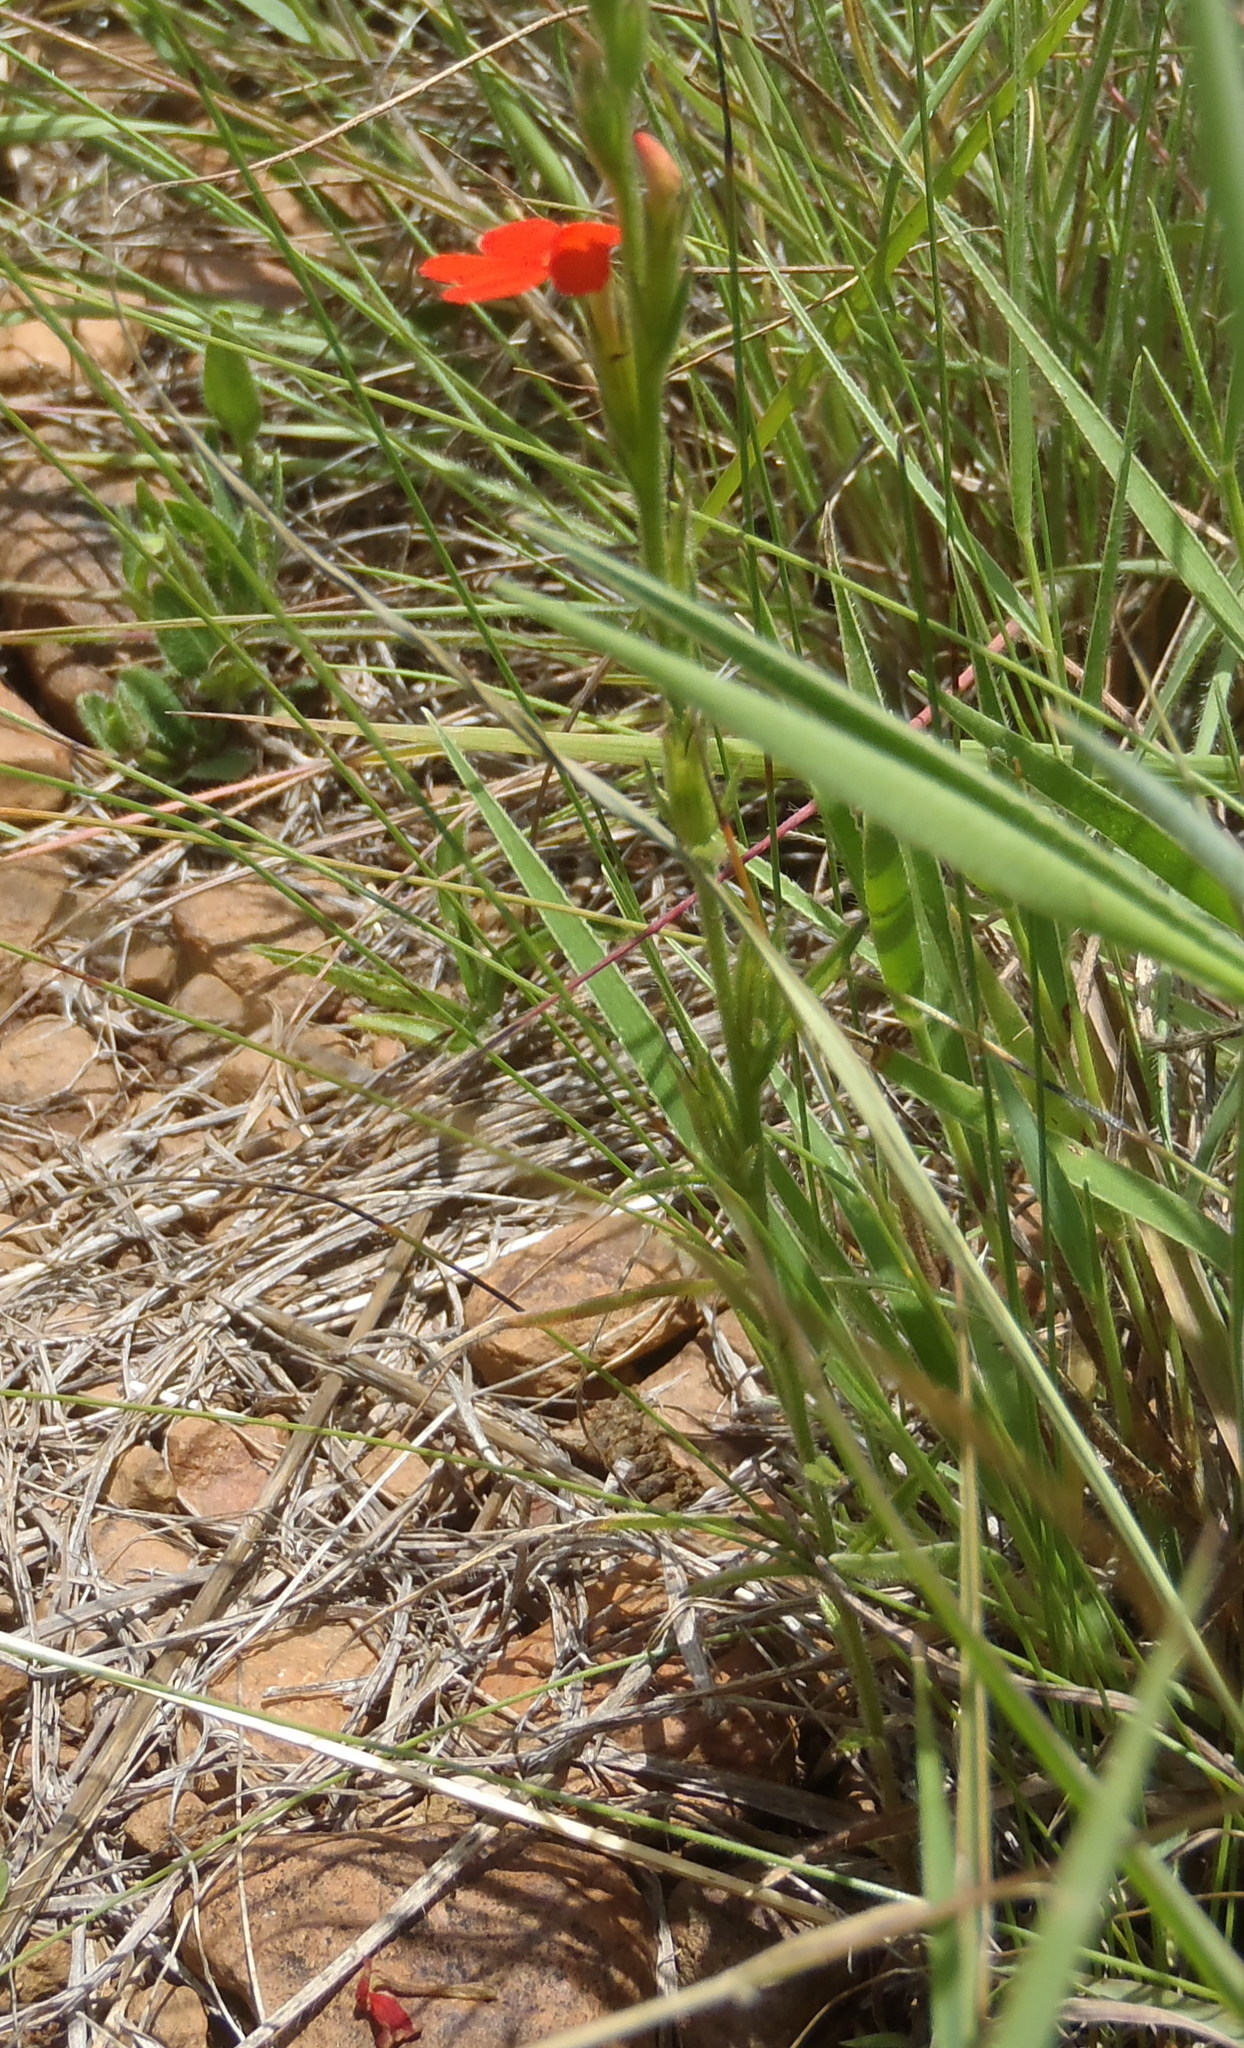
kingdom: Plantae
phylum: Tracheophyta
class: Magnoliopsida
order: Lamiales
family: Orobanchaceae
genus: Striga
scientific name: Striga elegans
